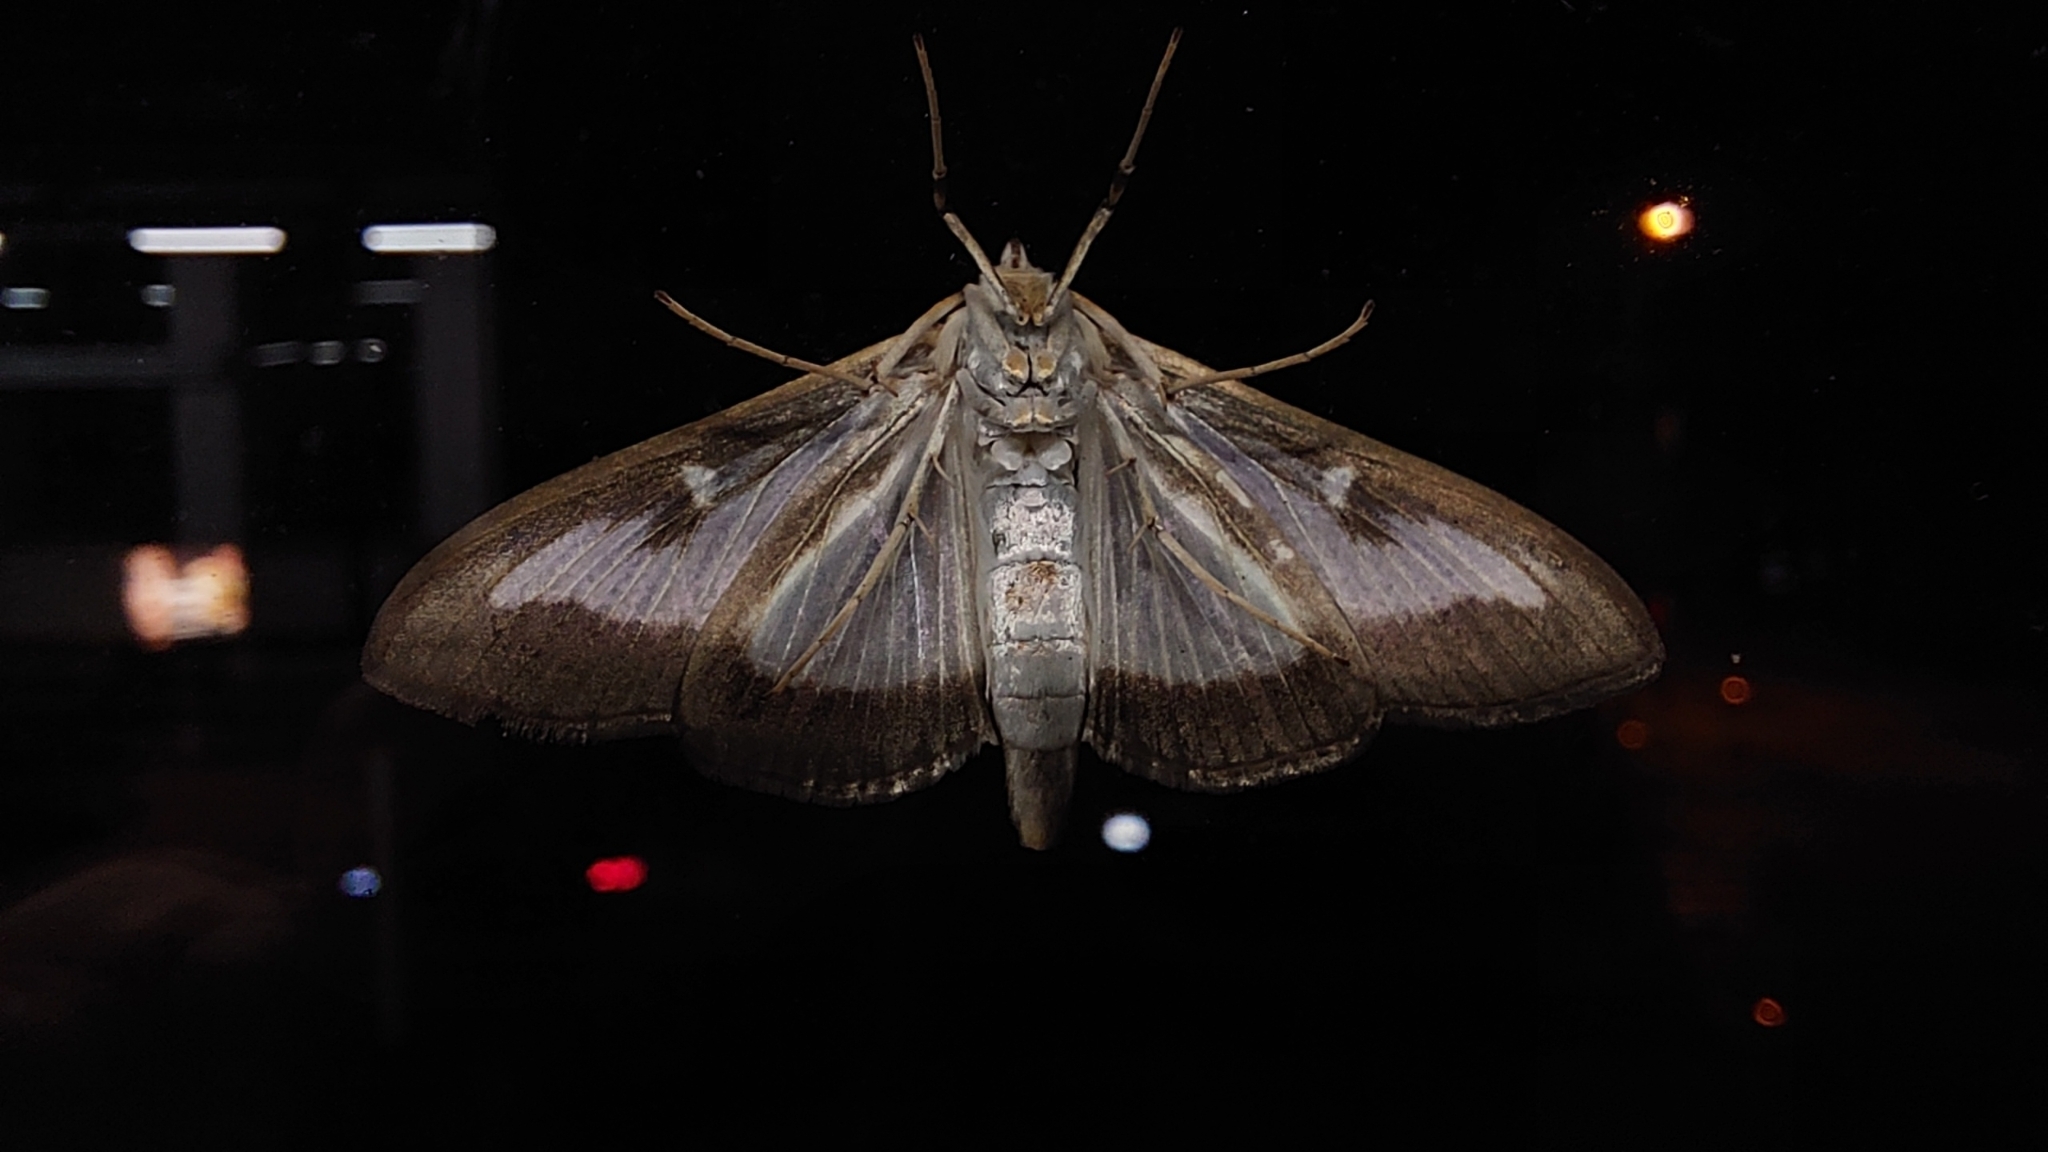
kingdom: Animalia
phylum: Arthropoda
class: Insecta
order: Lepidoptera
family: Crambidae
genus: Cydalima
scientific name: Cydalima perspectalis
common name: Box tree moth
